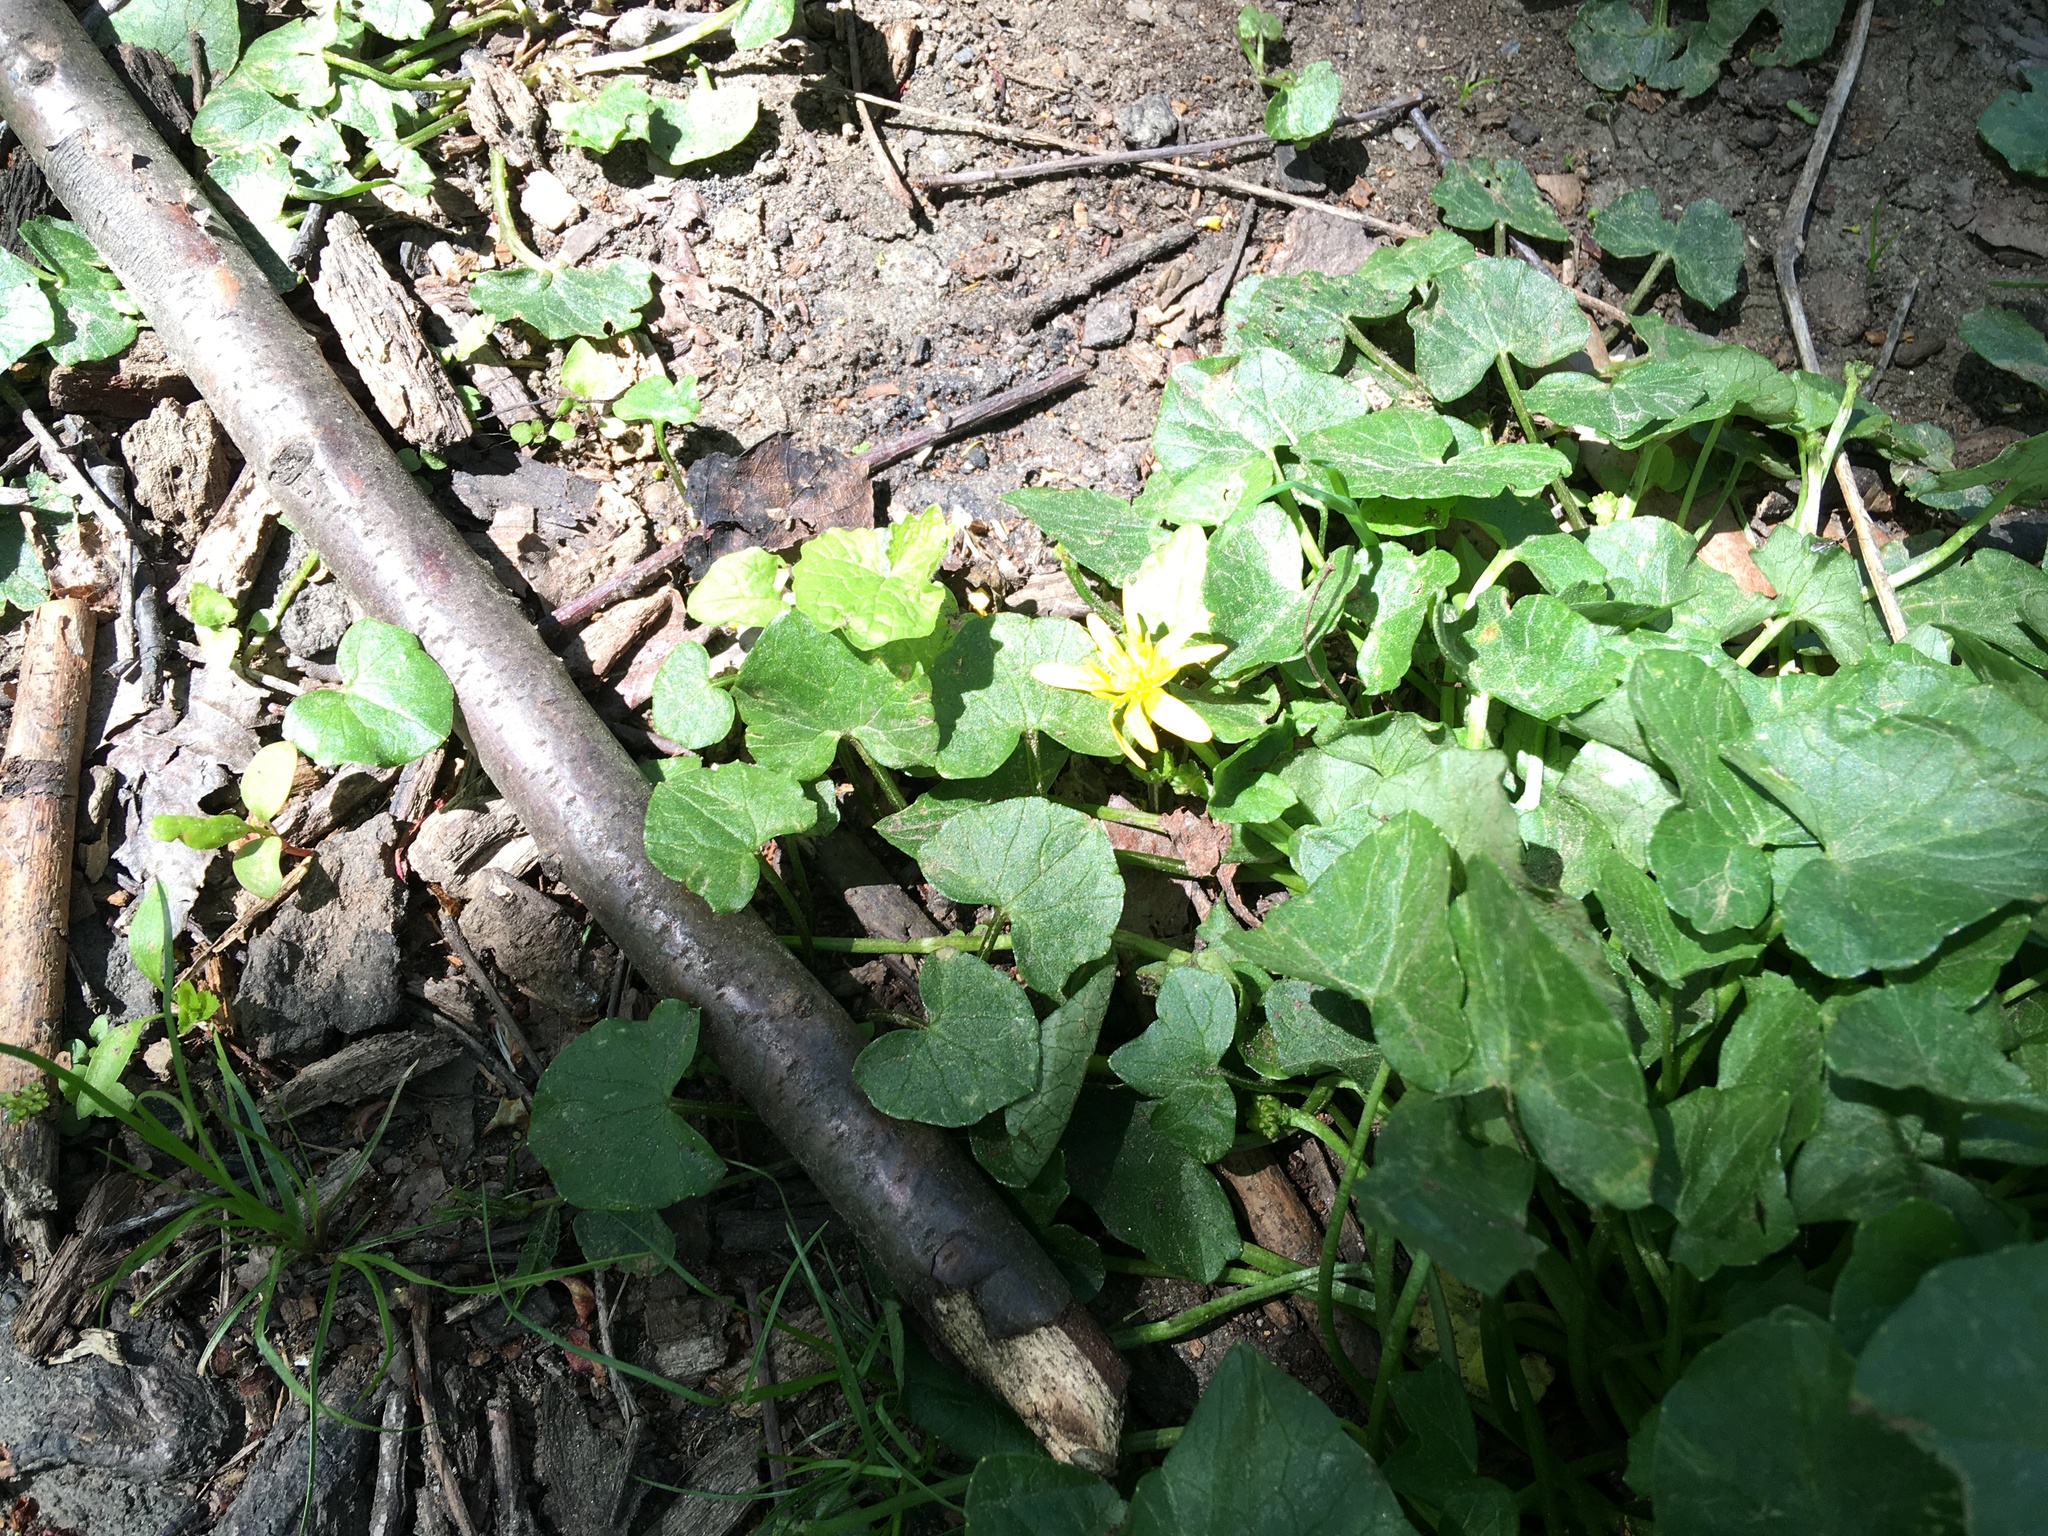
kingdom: Plantae
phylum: Tracheophyta
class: Magnoliopsida
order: Ranunculales
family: Ranunculaceae
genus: Ficaria
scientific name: Ficaria verna
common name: Lesser celandine
